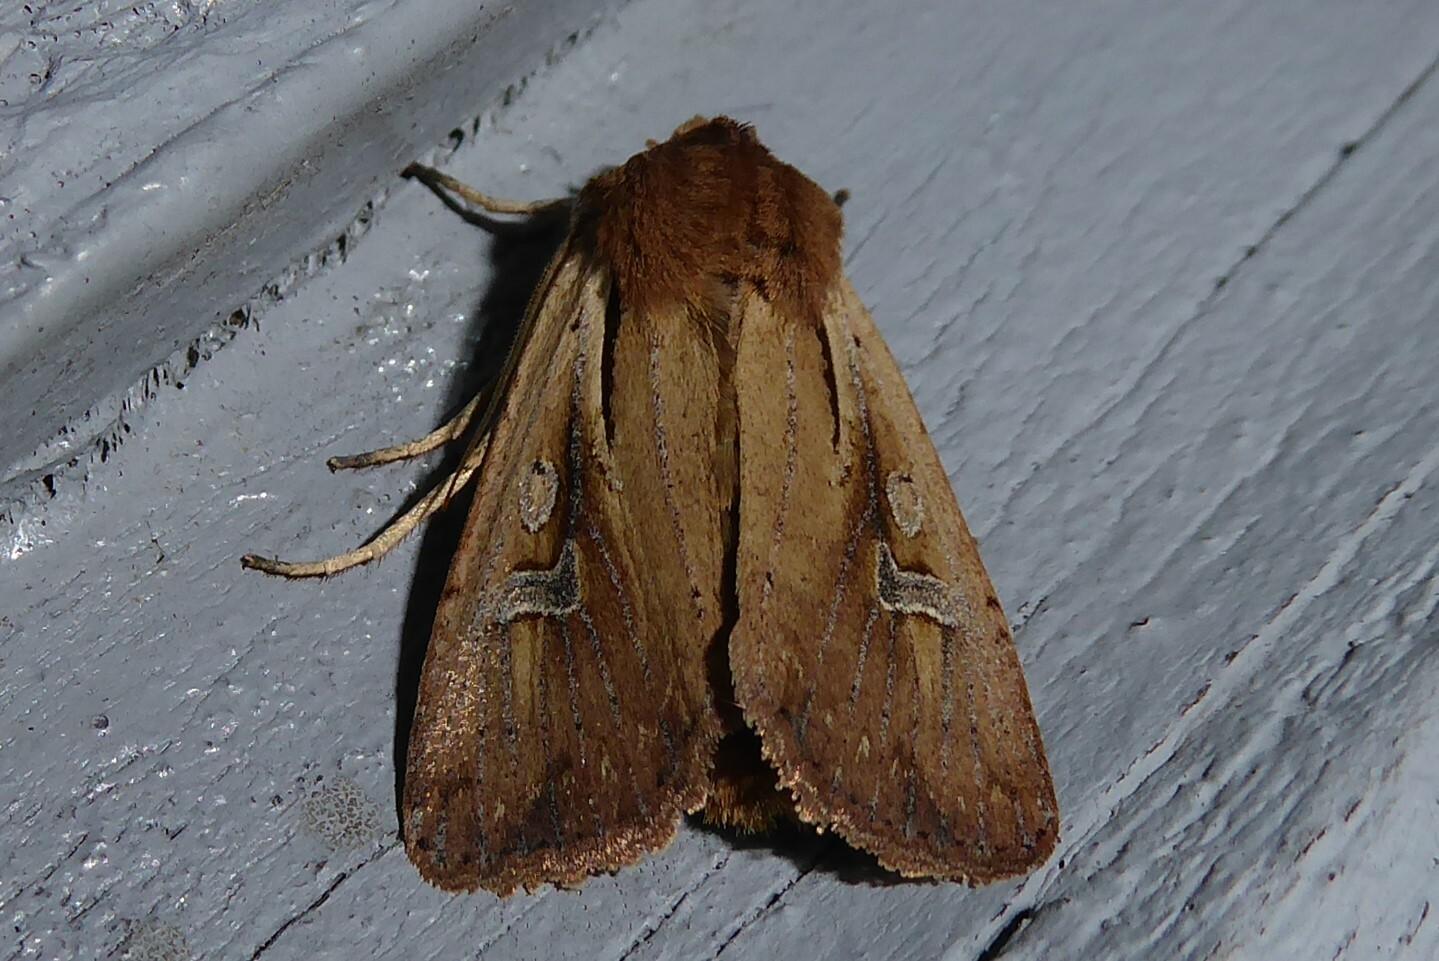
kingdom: Animalia
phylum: Arthropoda
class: Insecta
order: Lepidoptera
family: Noctuidae
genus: Ichneutica
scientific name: Ichneutica atristriga
